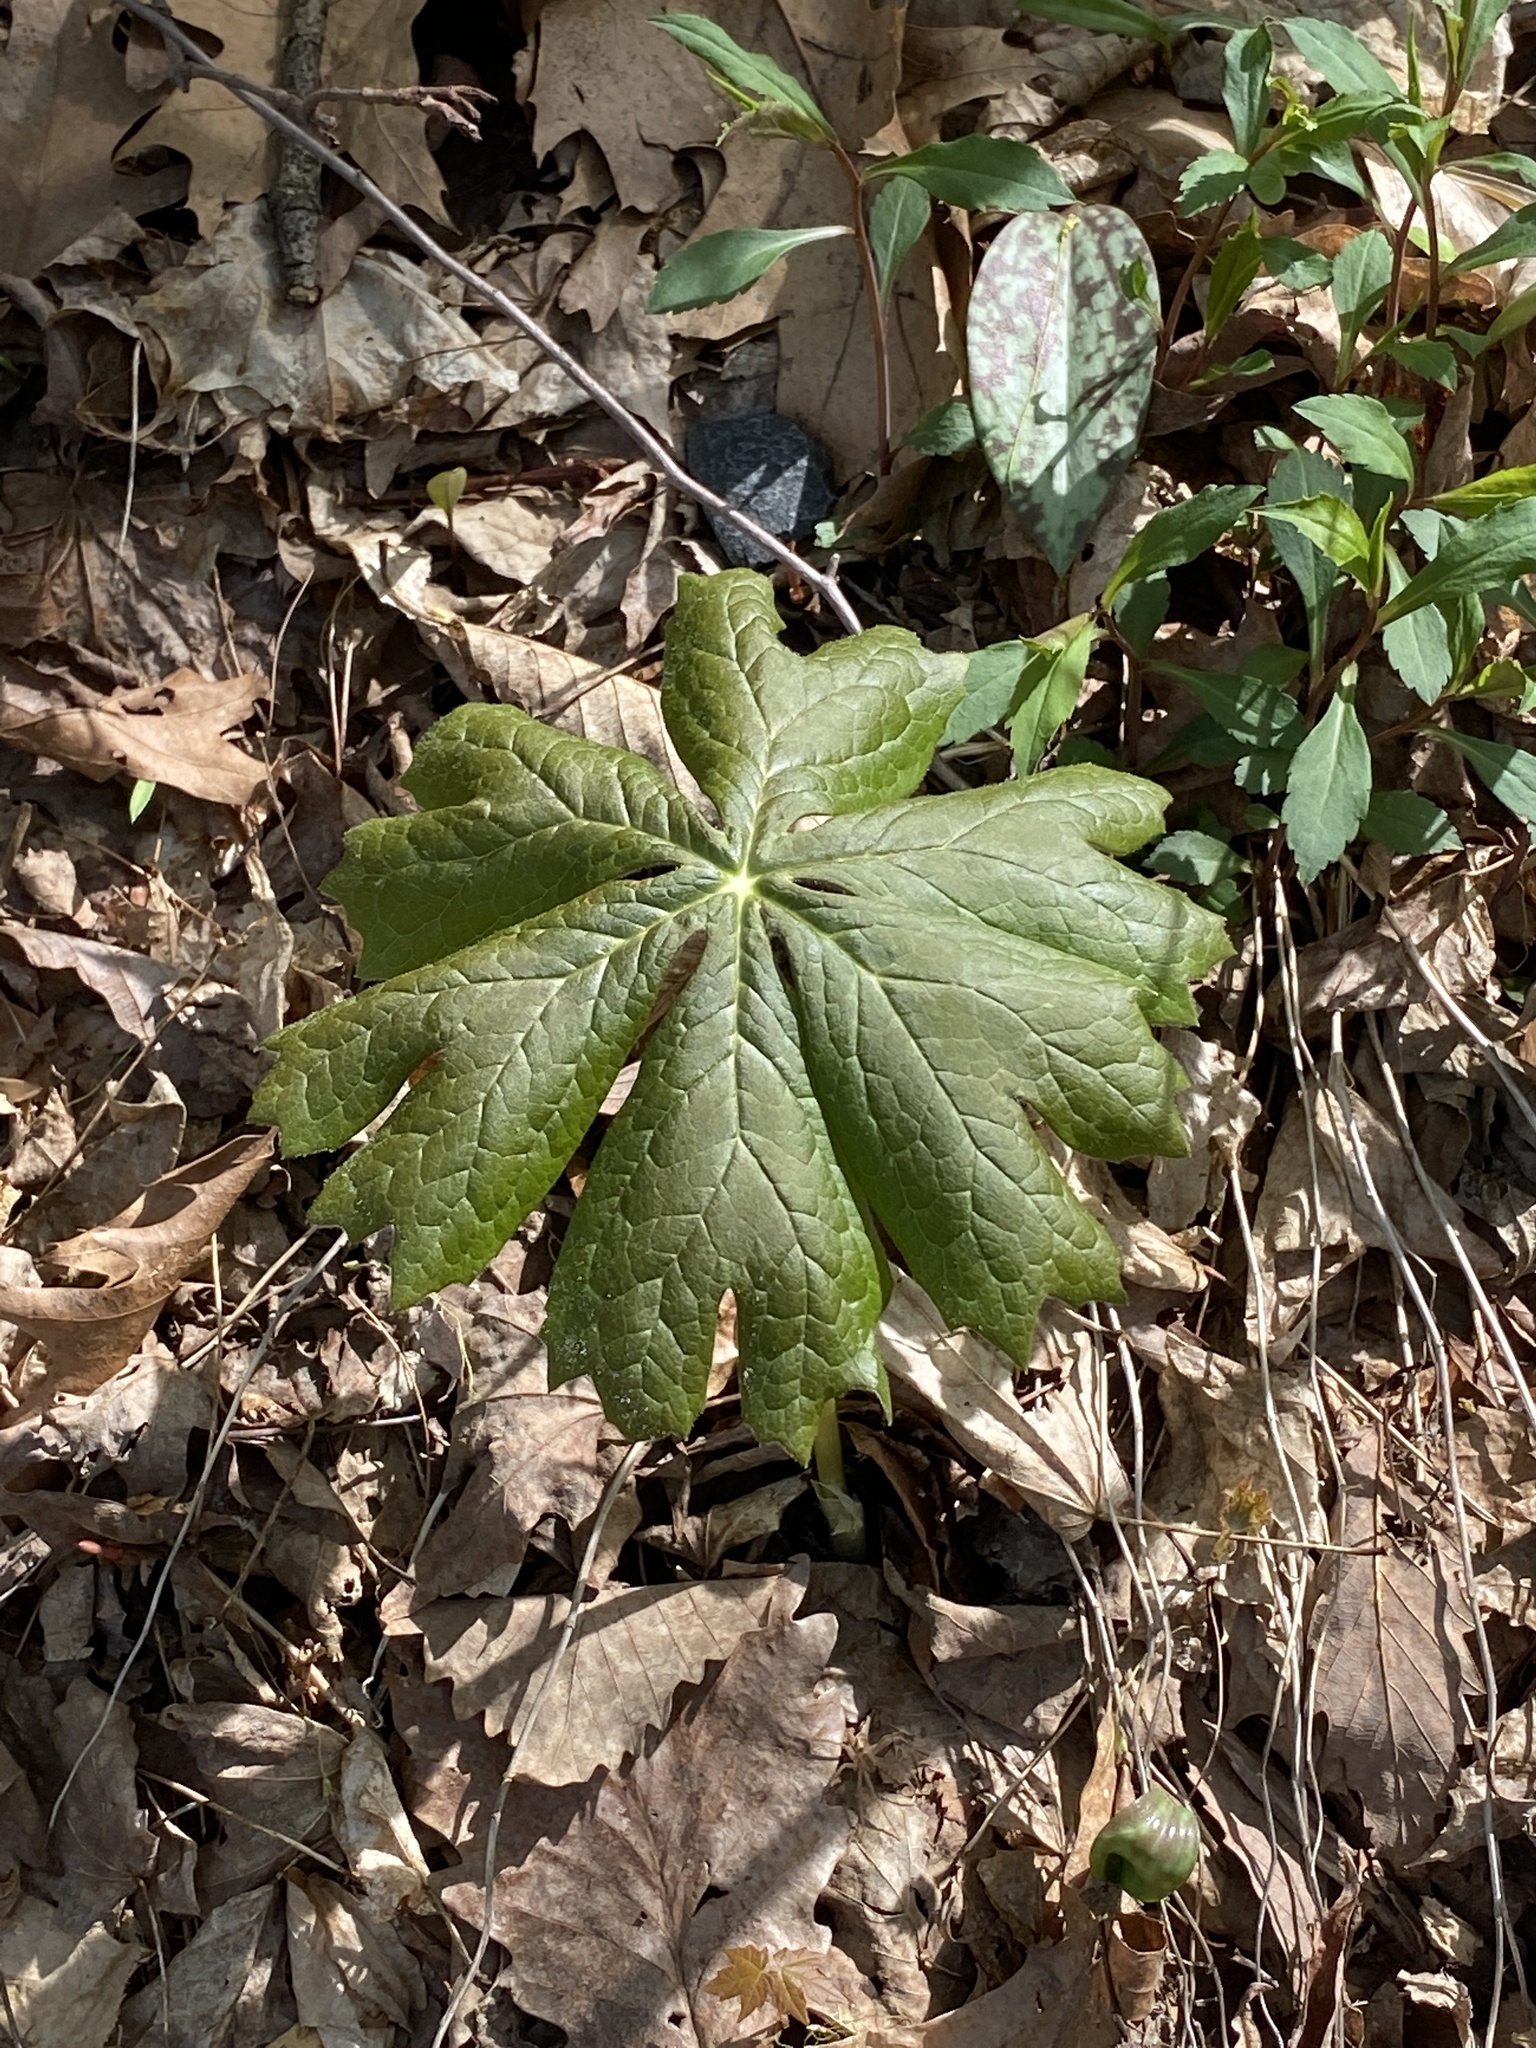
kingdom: Plantae
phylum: Tracheophyta
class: Magnoliopsida
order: Ranunculales
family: Berberidaceae
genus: Podophyllum
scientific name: Podophyllum peltatum
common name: Wild mandrake
